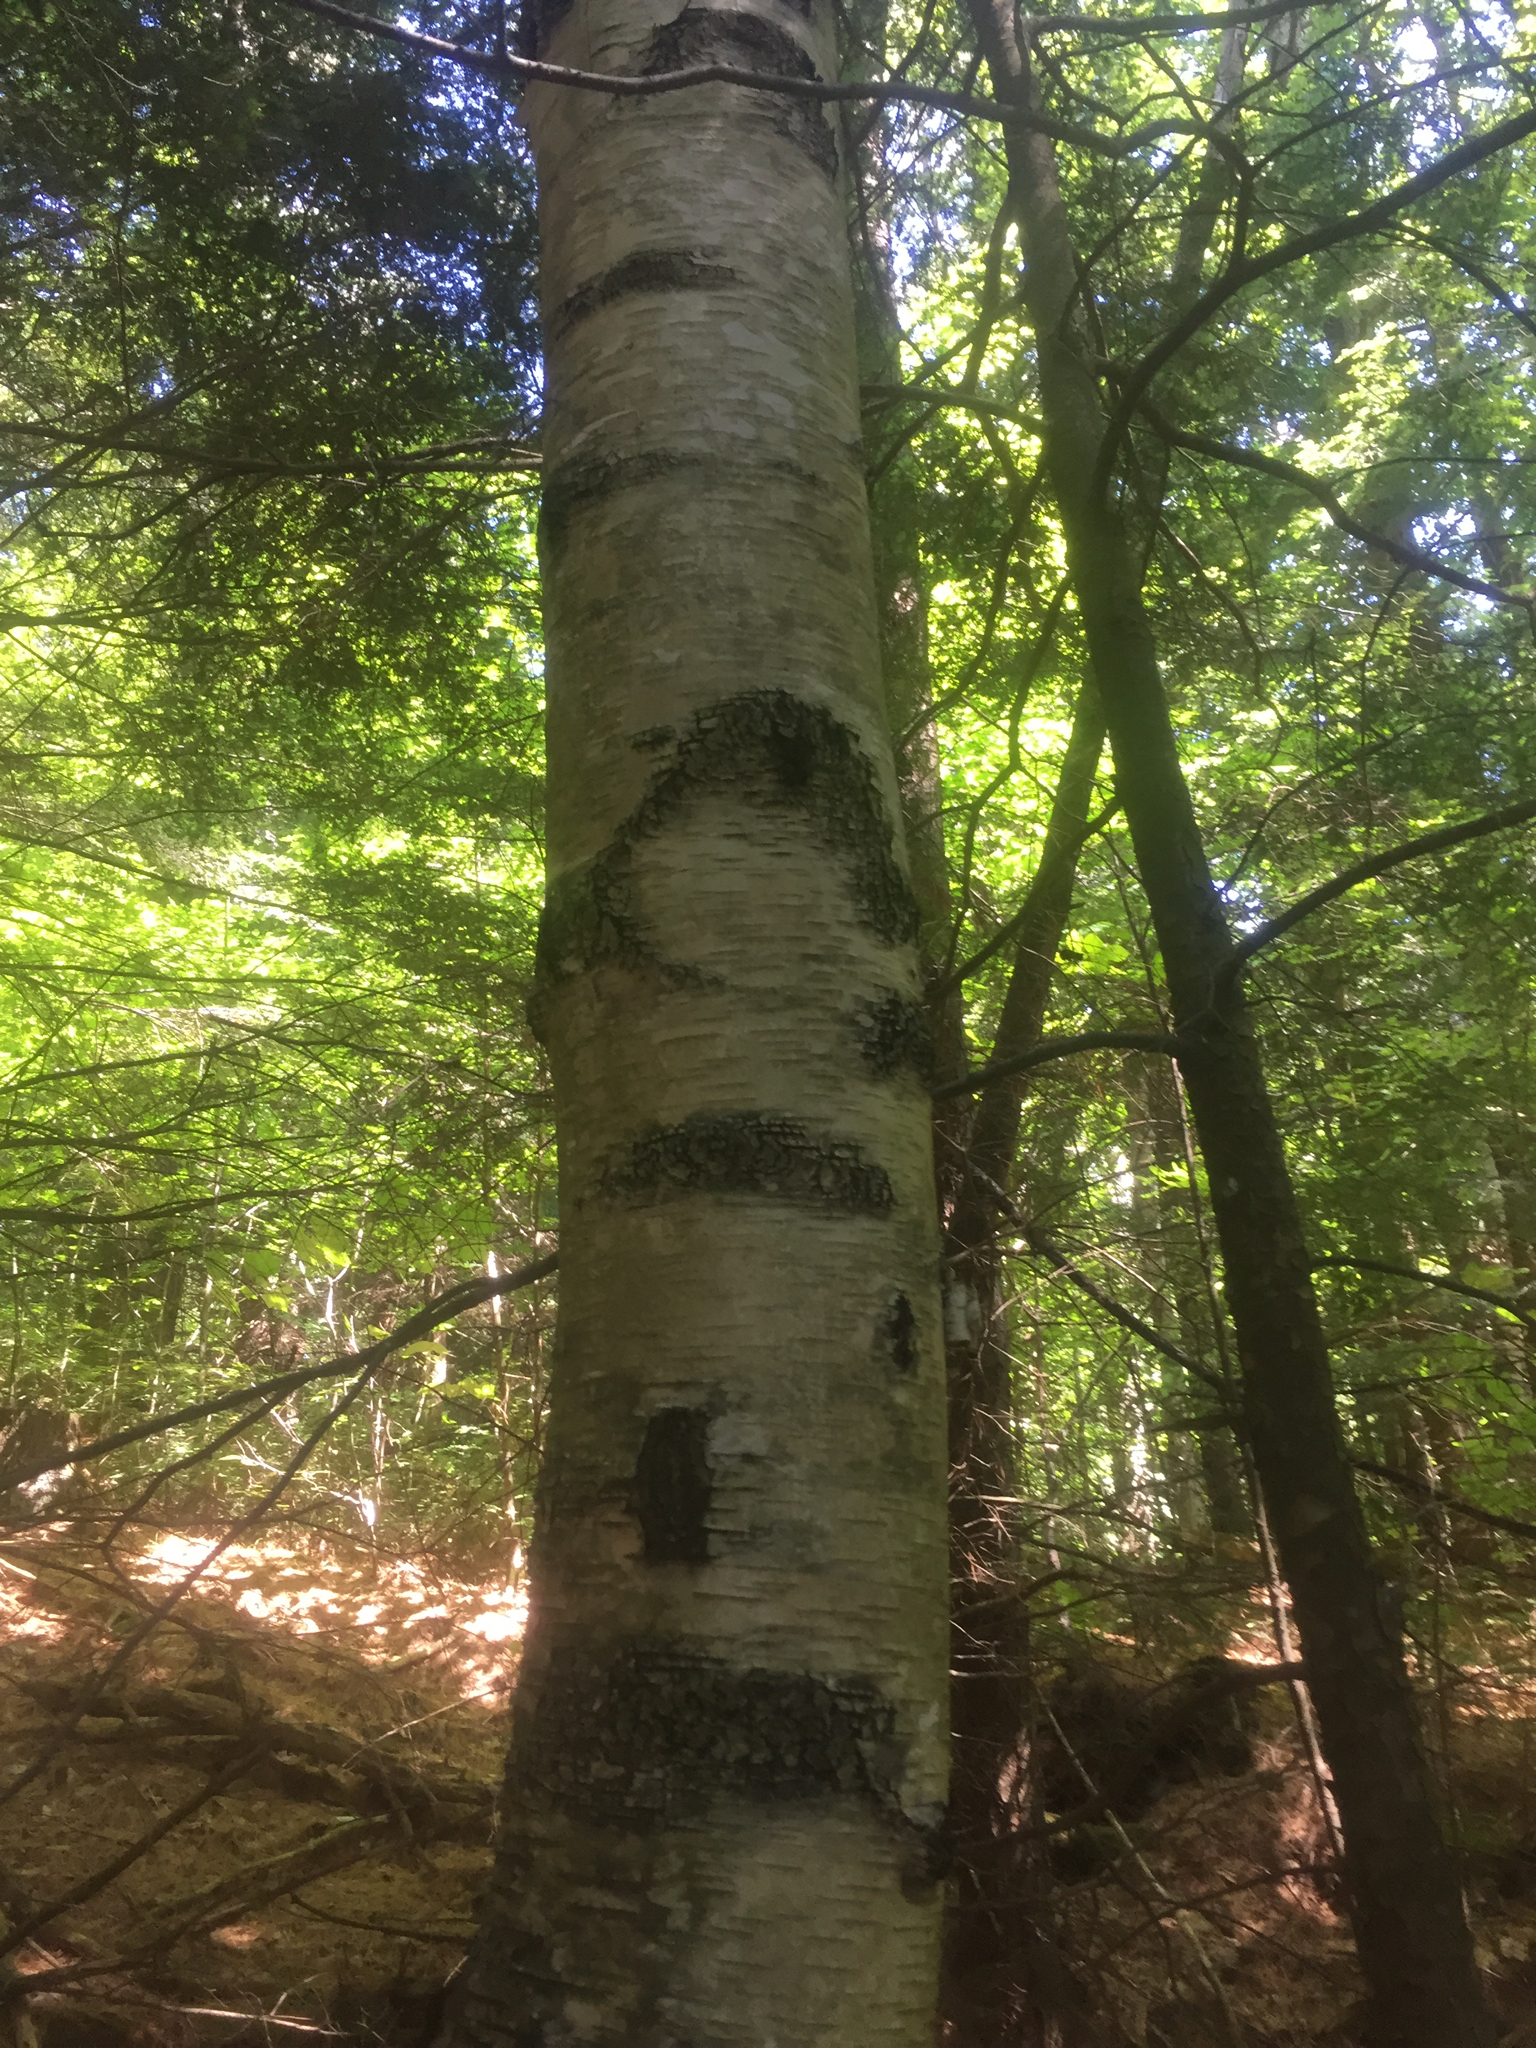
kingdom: Plantae
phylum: Tracheophyta
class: Magnoliopsida
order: Fagales
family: Betulaceae
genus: Betula
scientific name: Betula populifolia
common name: Fire birch
